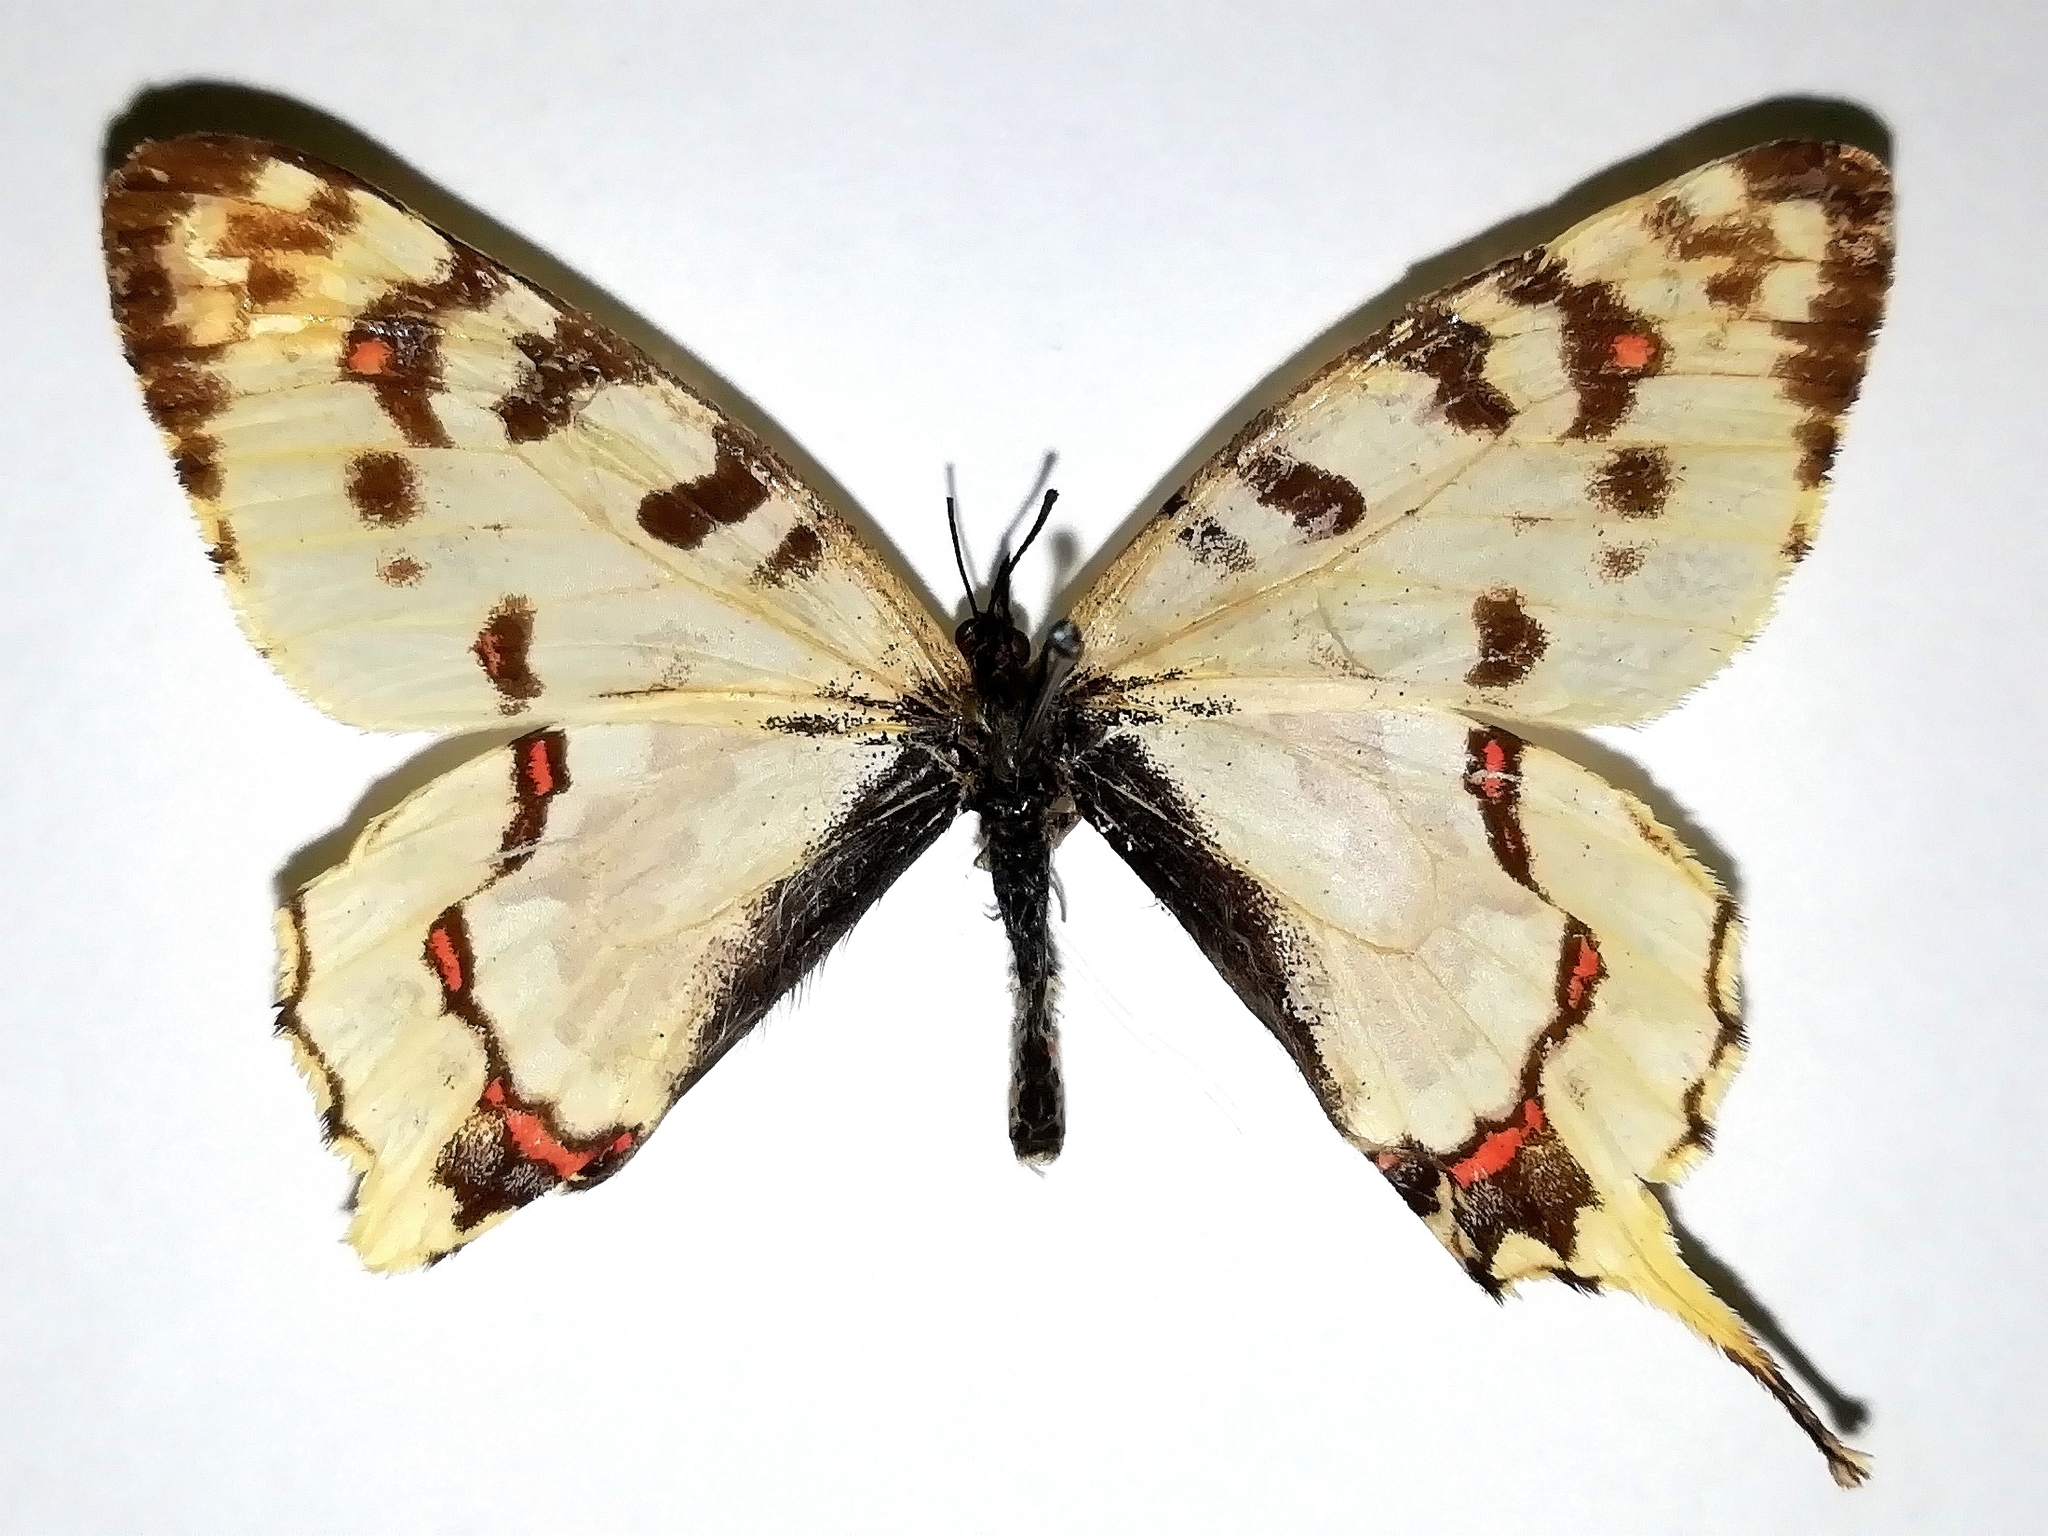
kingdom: Animalia
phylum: Arthropoda
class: Insecta
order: Lepidoptera
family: Papilionidae
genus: Sericinus
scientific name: Sericinus montela
